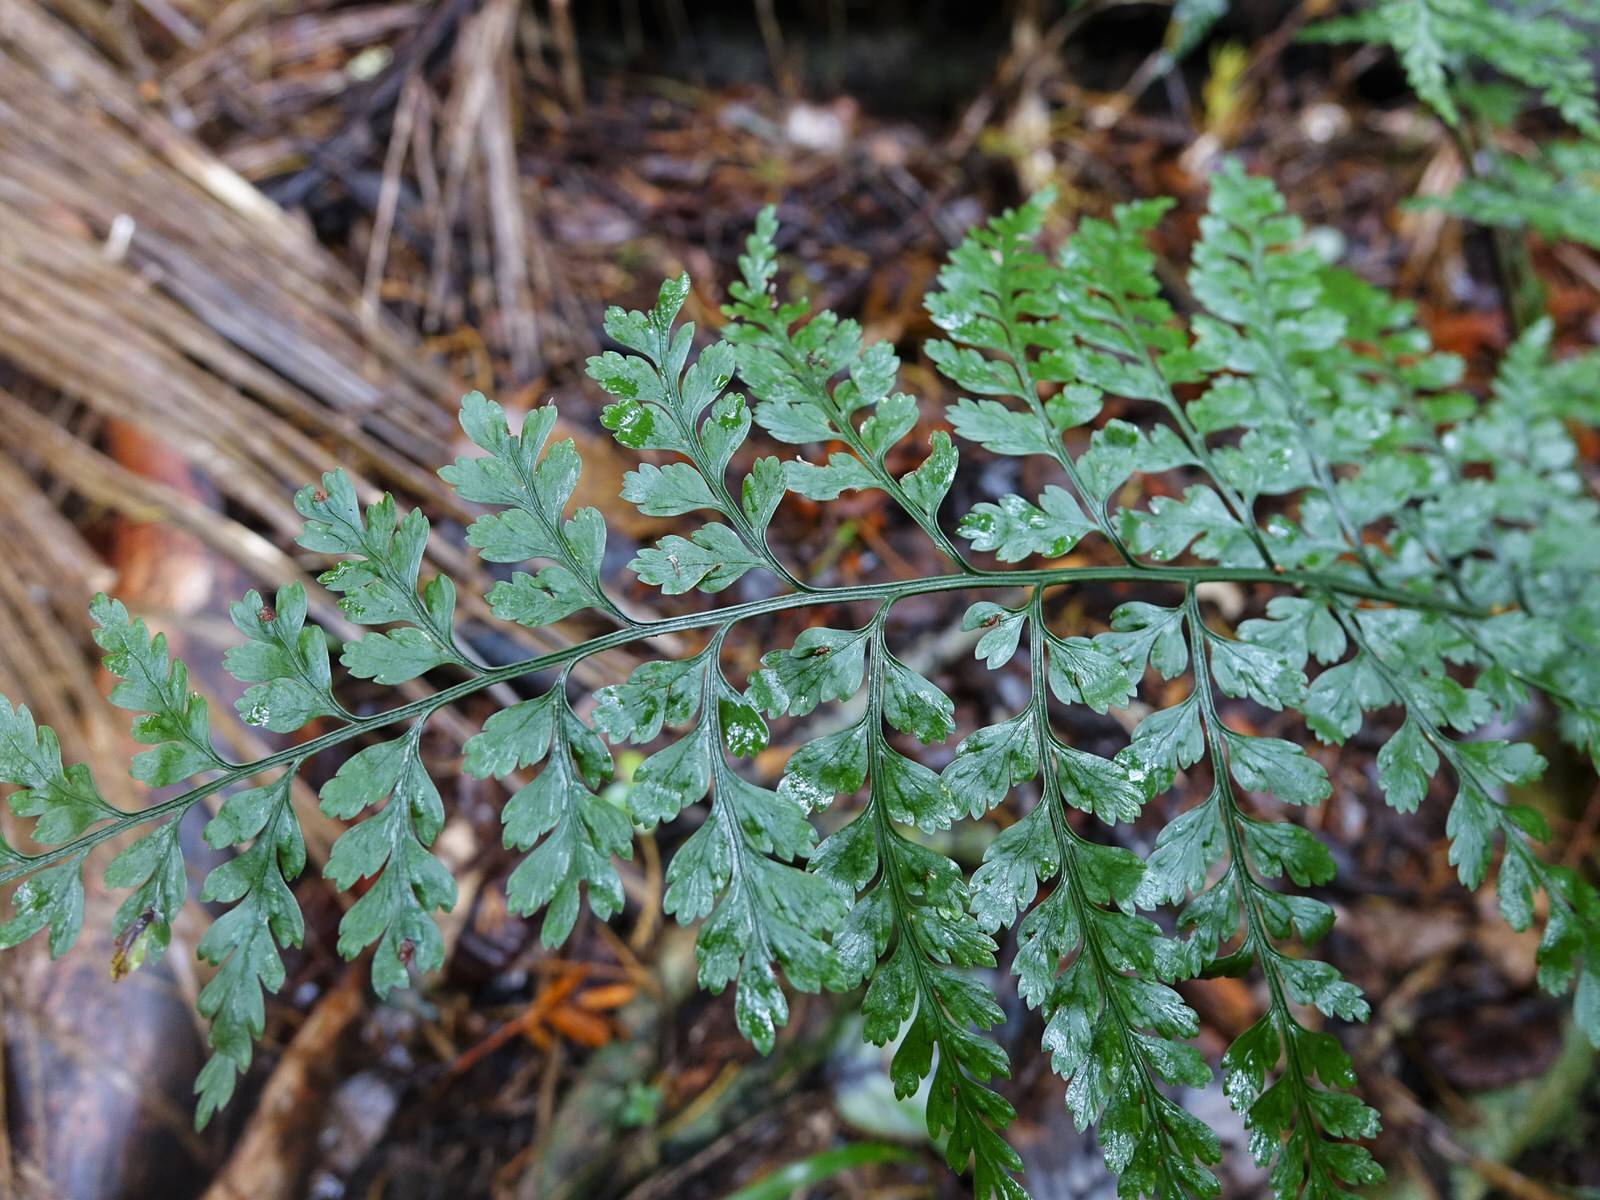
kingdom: Plantae
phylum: Tracheophyta
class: Polypodiopsida
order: Polypodiales
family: Aspleniaceae
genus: Asplenium
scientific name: Asplenium
